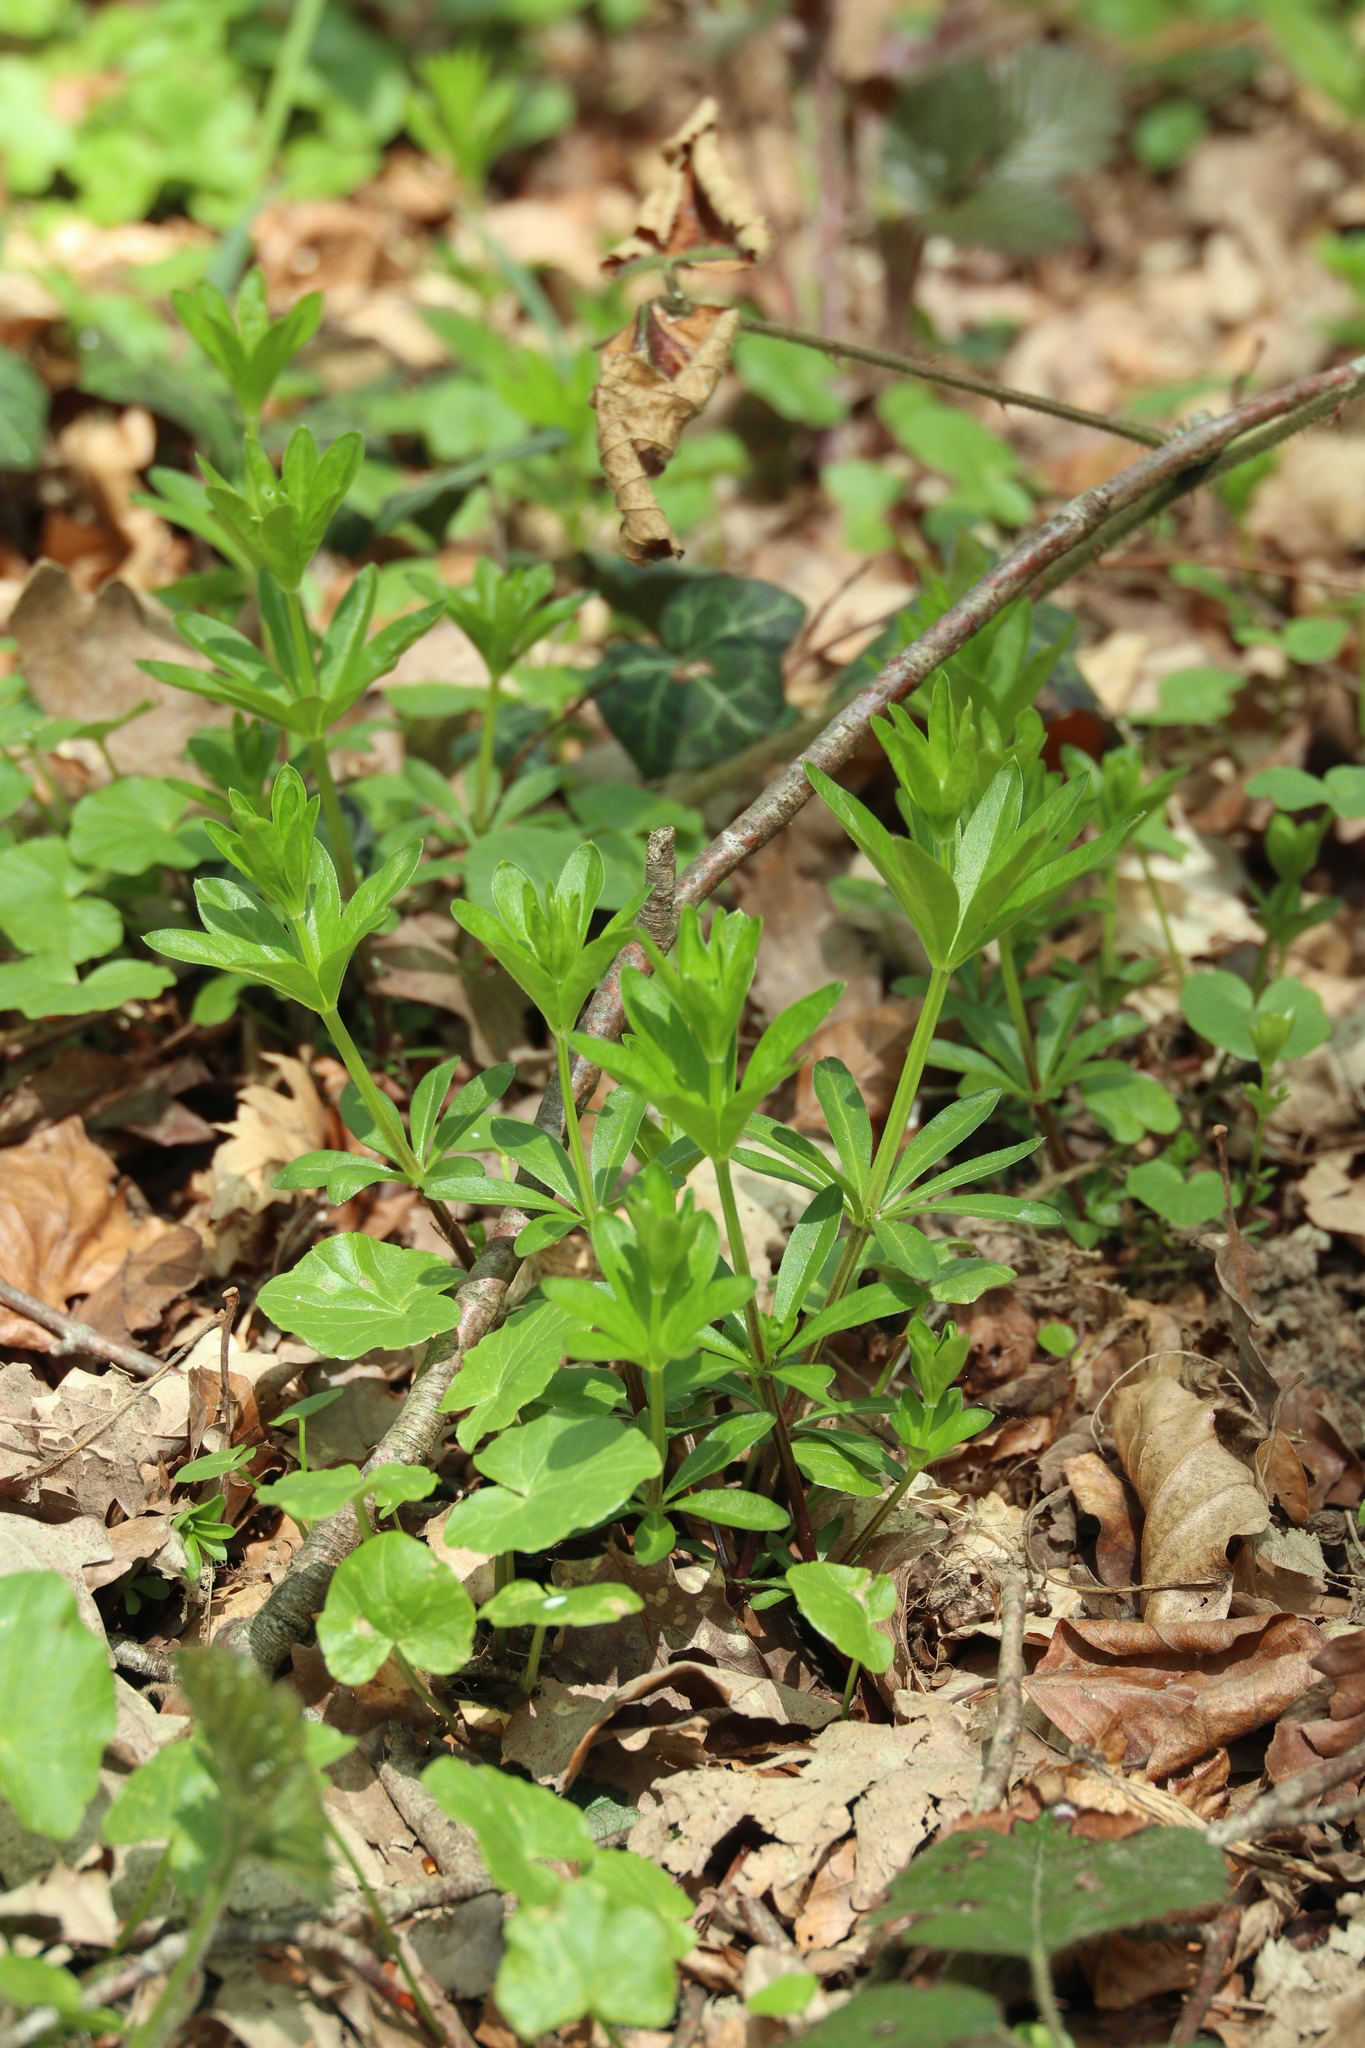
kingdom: Plantae
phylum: Tracheophyta
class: Magnoliopsida
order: Gentianales
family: Rubiaceae
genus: Galium
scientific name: Galium odoratum
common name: Sweet woodruff
